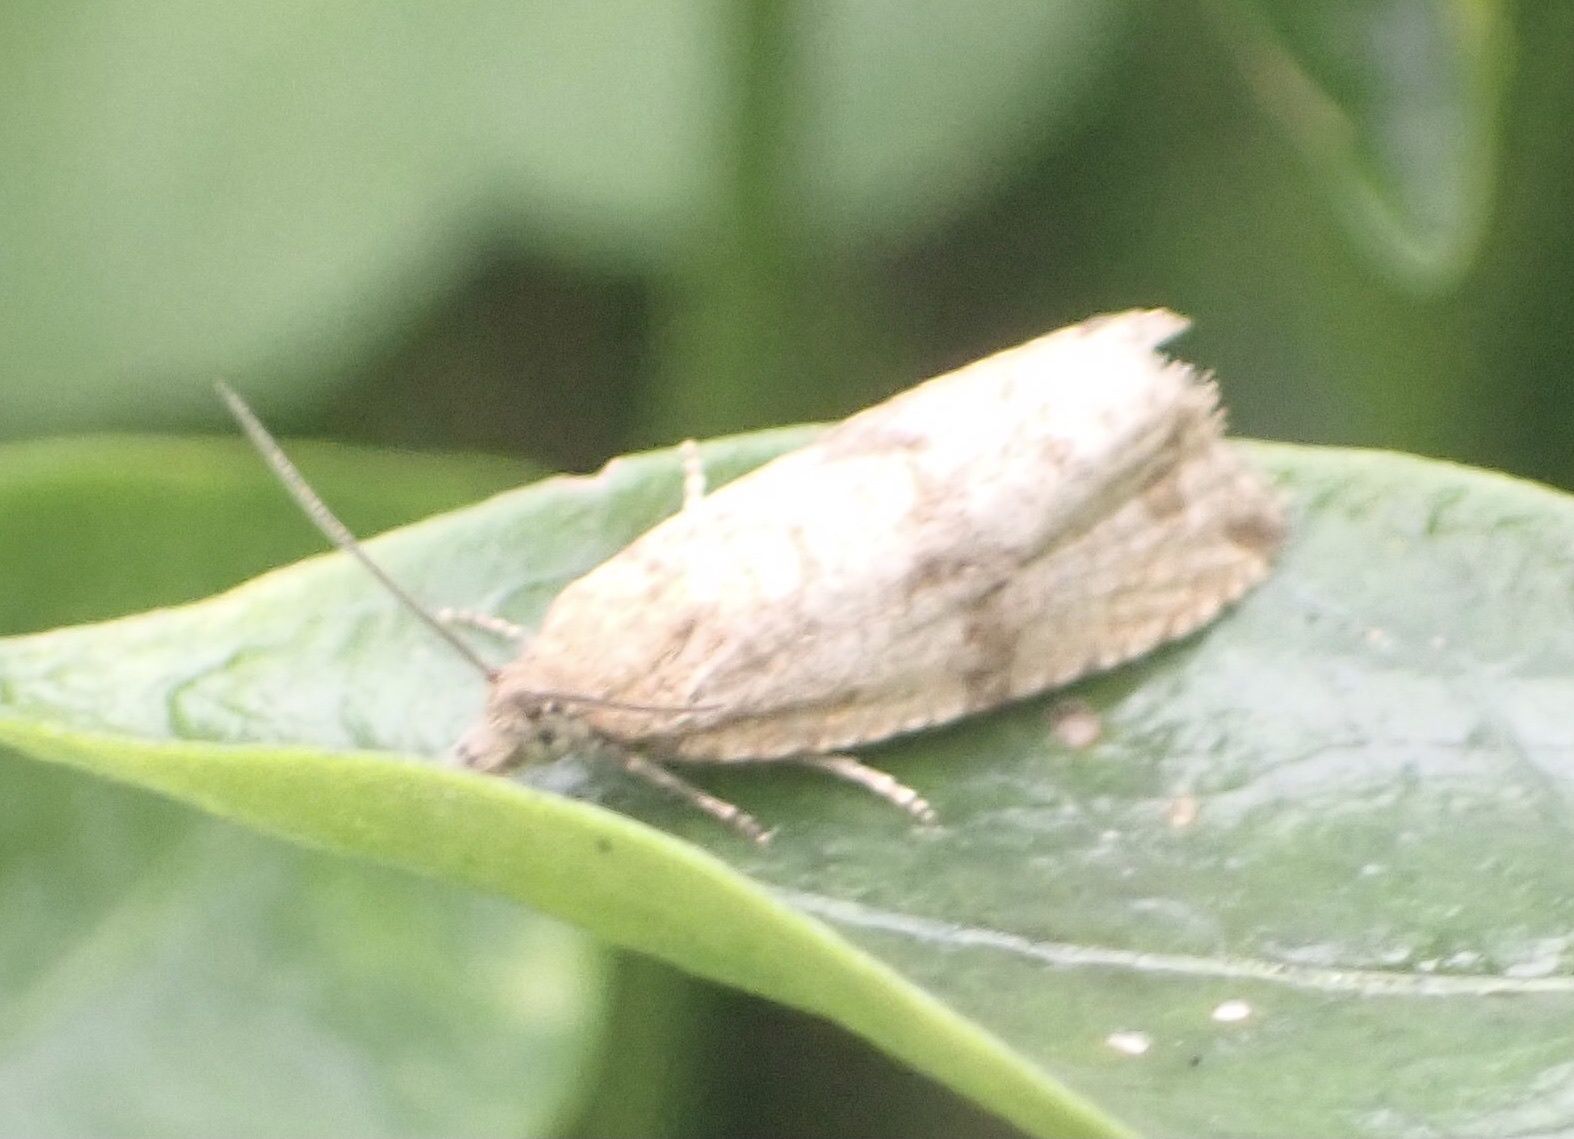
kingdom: Animalia
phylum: Arthropoda
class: Insecta
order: Lepidoptera
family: Tortricidae
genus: Celypha
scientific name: Celypha striana
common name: Barred marble
